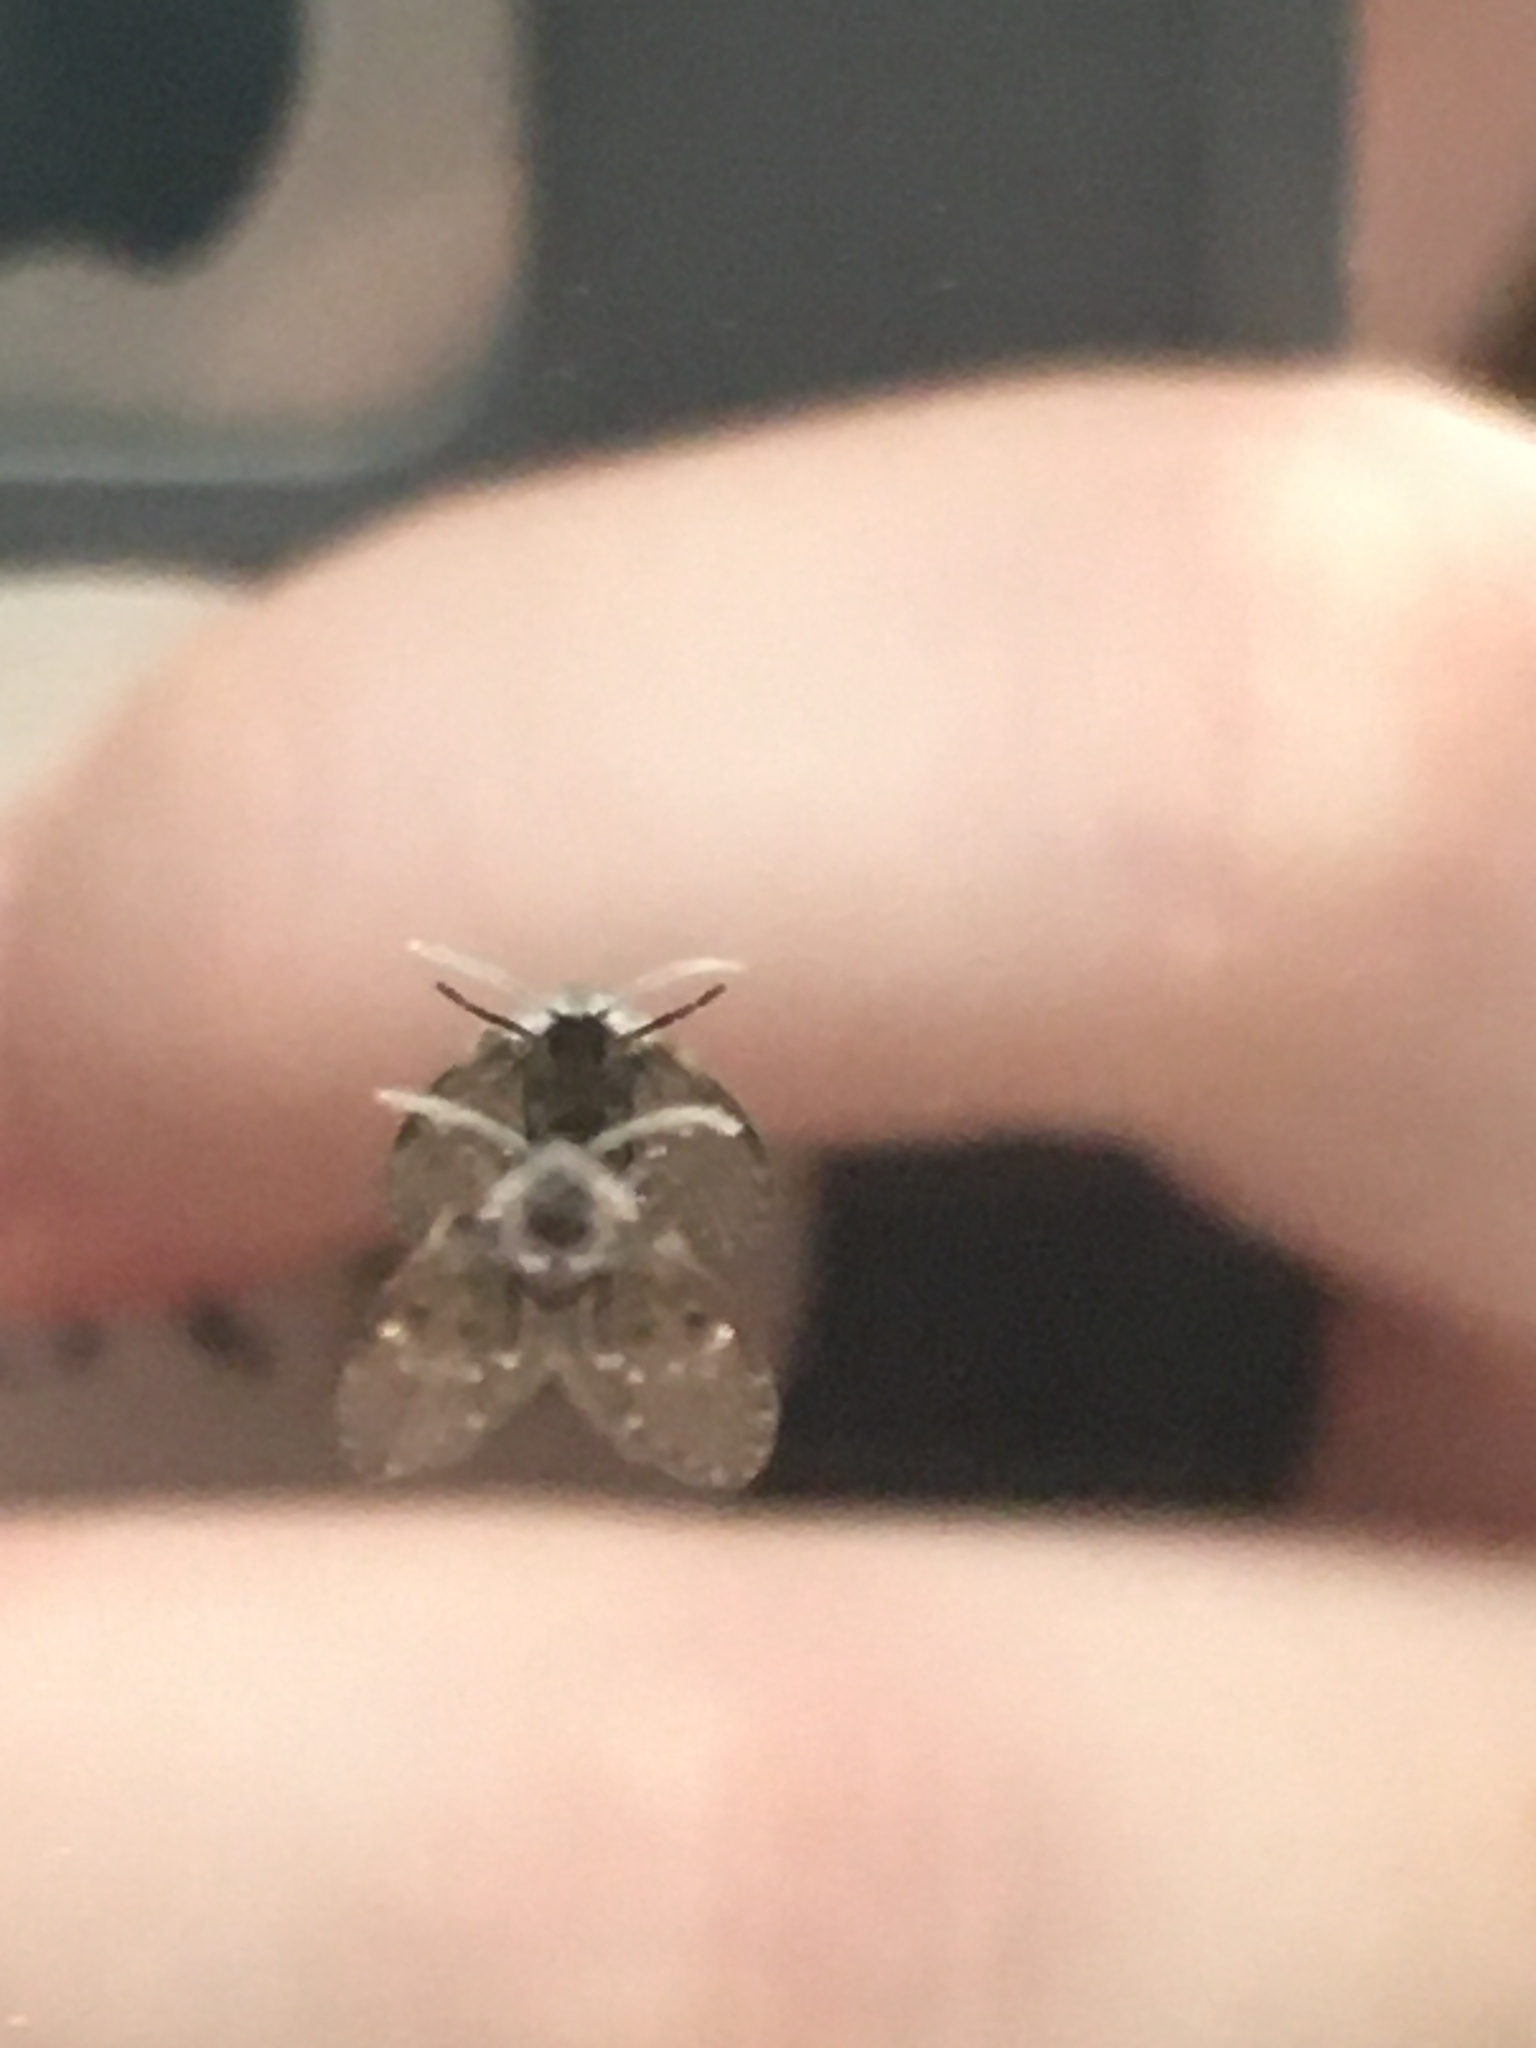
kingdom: Animalia
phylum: Arthropoda
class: Insecta
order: Diptera
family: Psychodidae
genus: Clogmia
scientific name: Clogmia albipunctatus
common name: White-spotted moth fly
